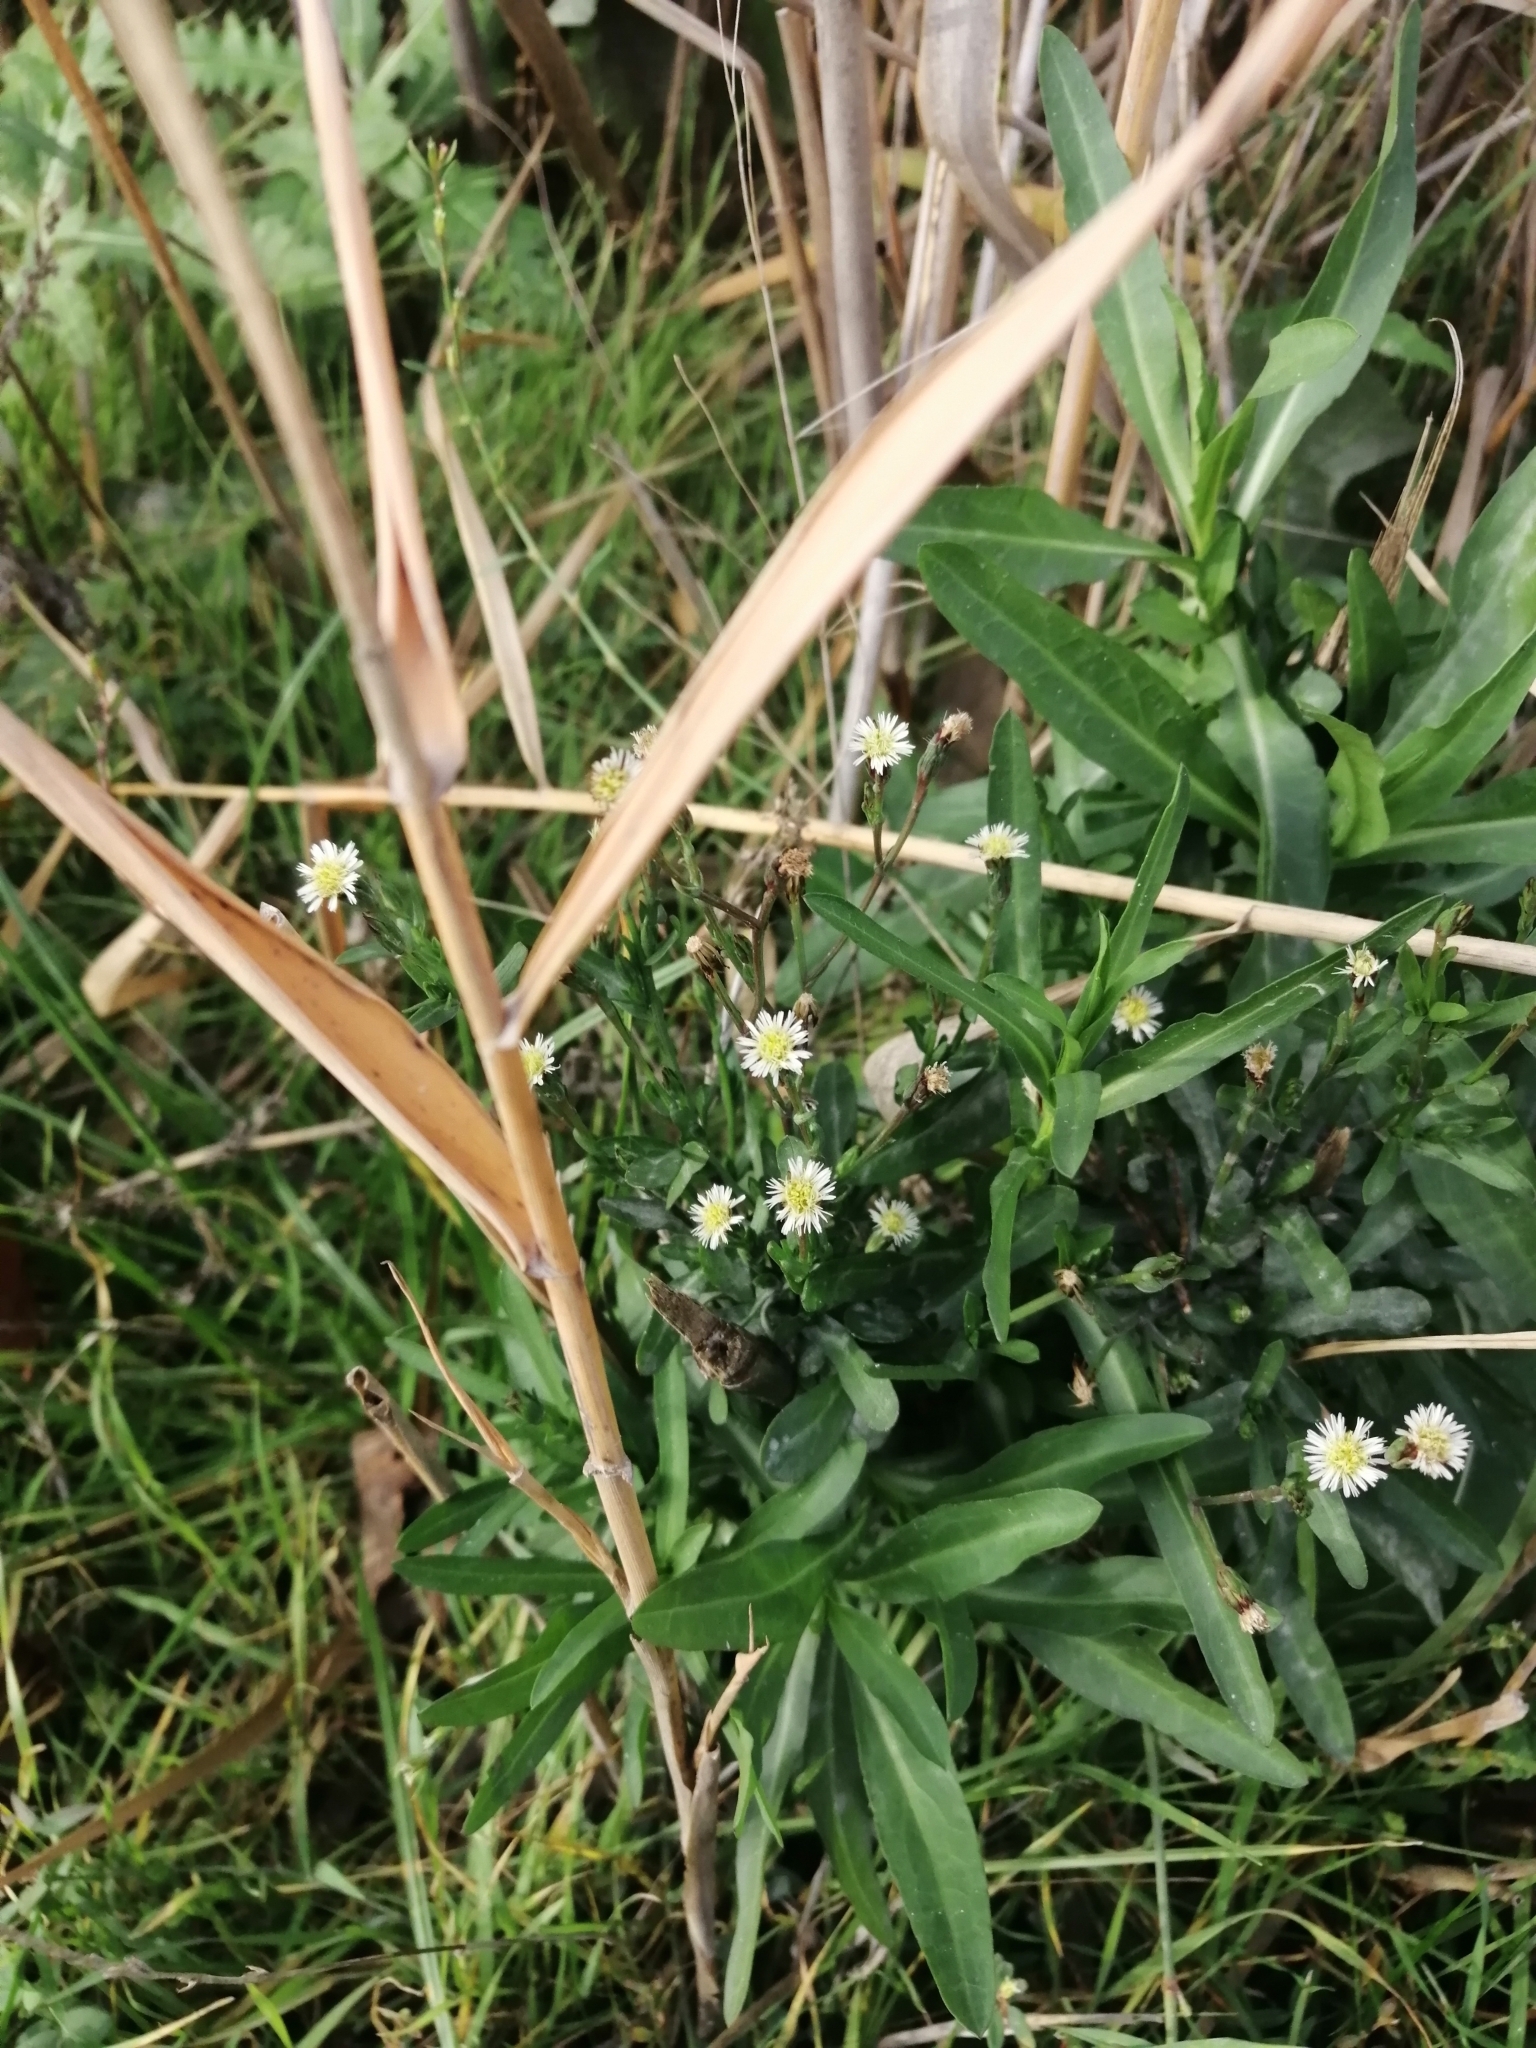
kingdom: Plantae
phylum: Tracheophyta
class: Magnoliopsida
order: Asterales
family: Asteraceae
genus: Symphyotrichum
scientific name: Symphyotrichum subulatum
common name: Annual saltmarsh aster
